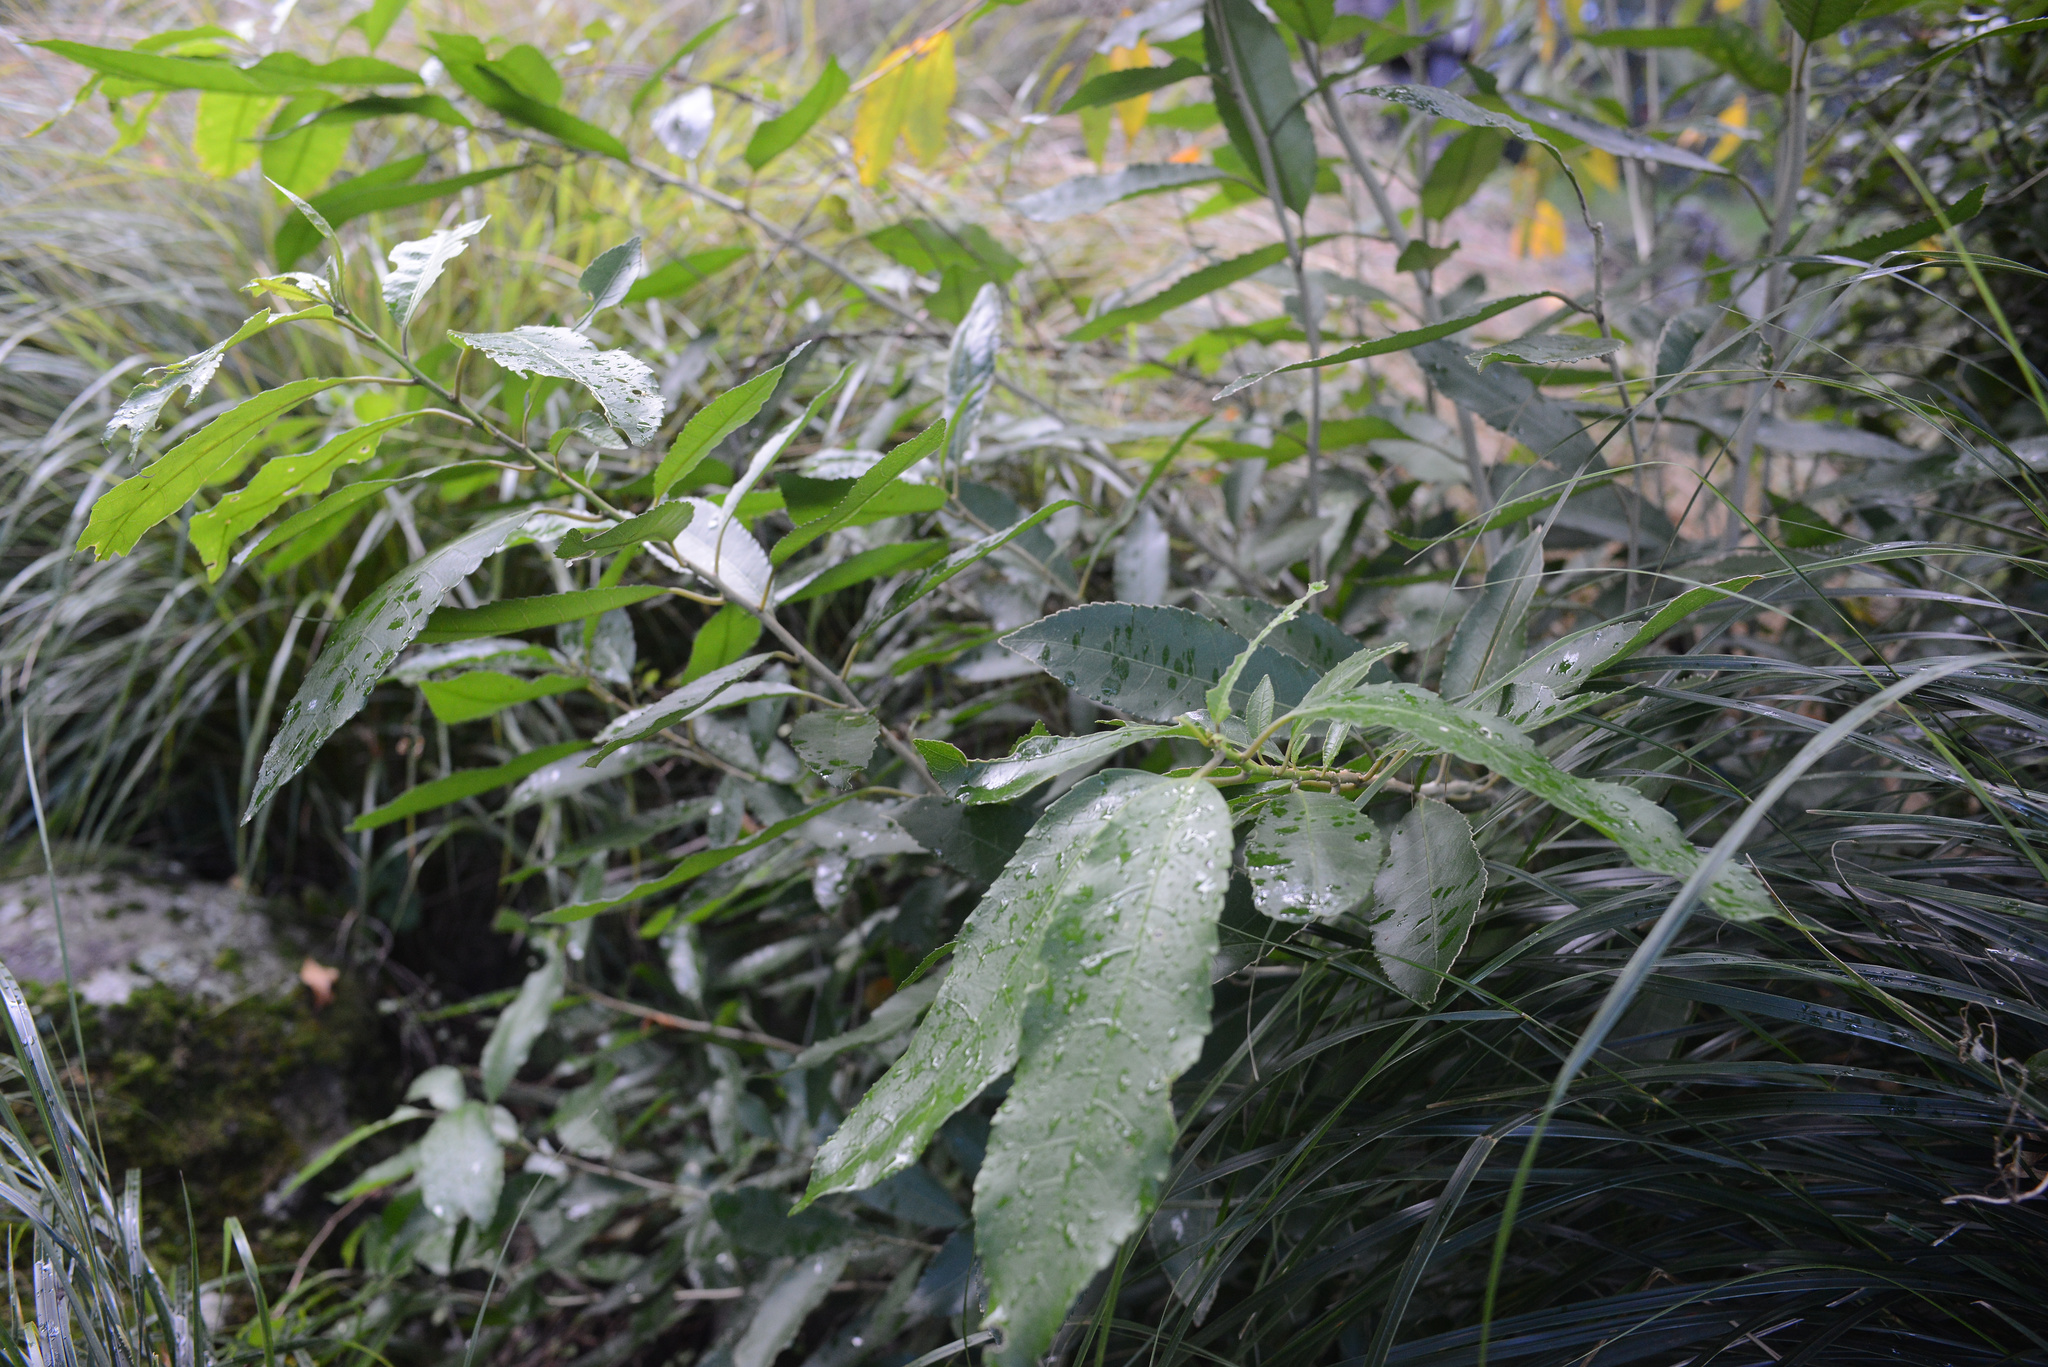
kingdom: Plantae
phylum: Tracheophyta
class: Magnoliopsida
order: Malpighiales
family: Violaceae
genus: Melicytus
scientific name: Melicytus ramiflorus
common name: Mahoe
